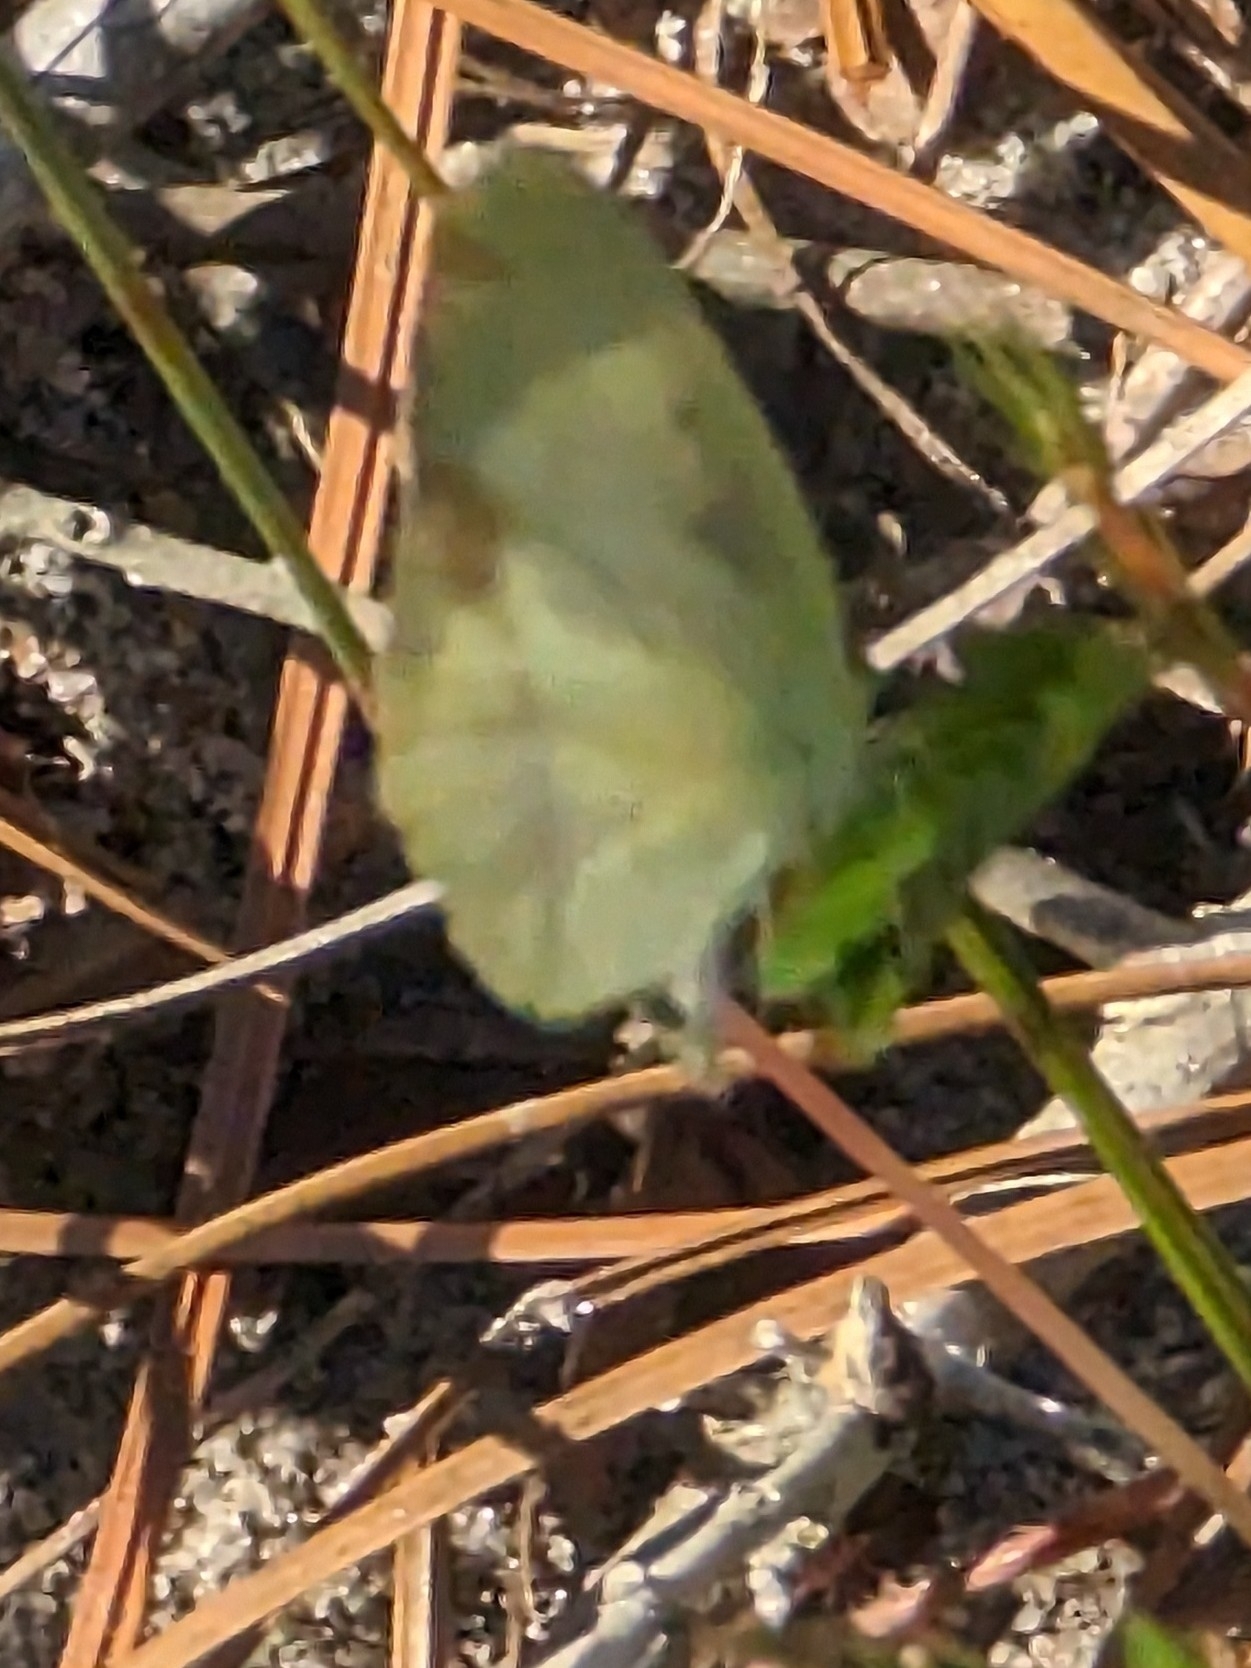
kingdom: Animalia
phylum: Arthropoda
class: Insecta
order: Lepidoptera
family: Pieridae
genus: Pyrisitia
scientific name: Pyrisitia lisa
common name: Little yellow
